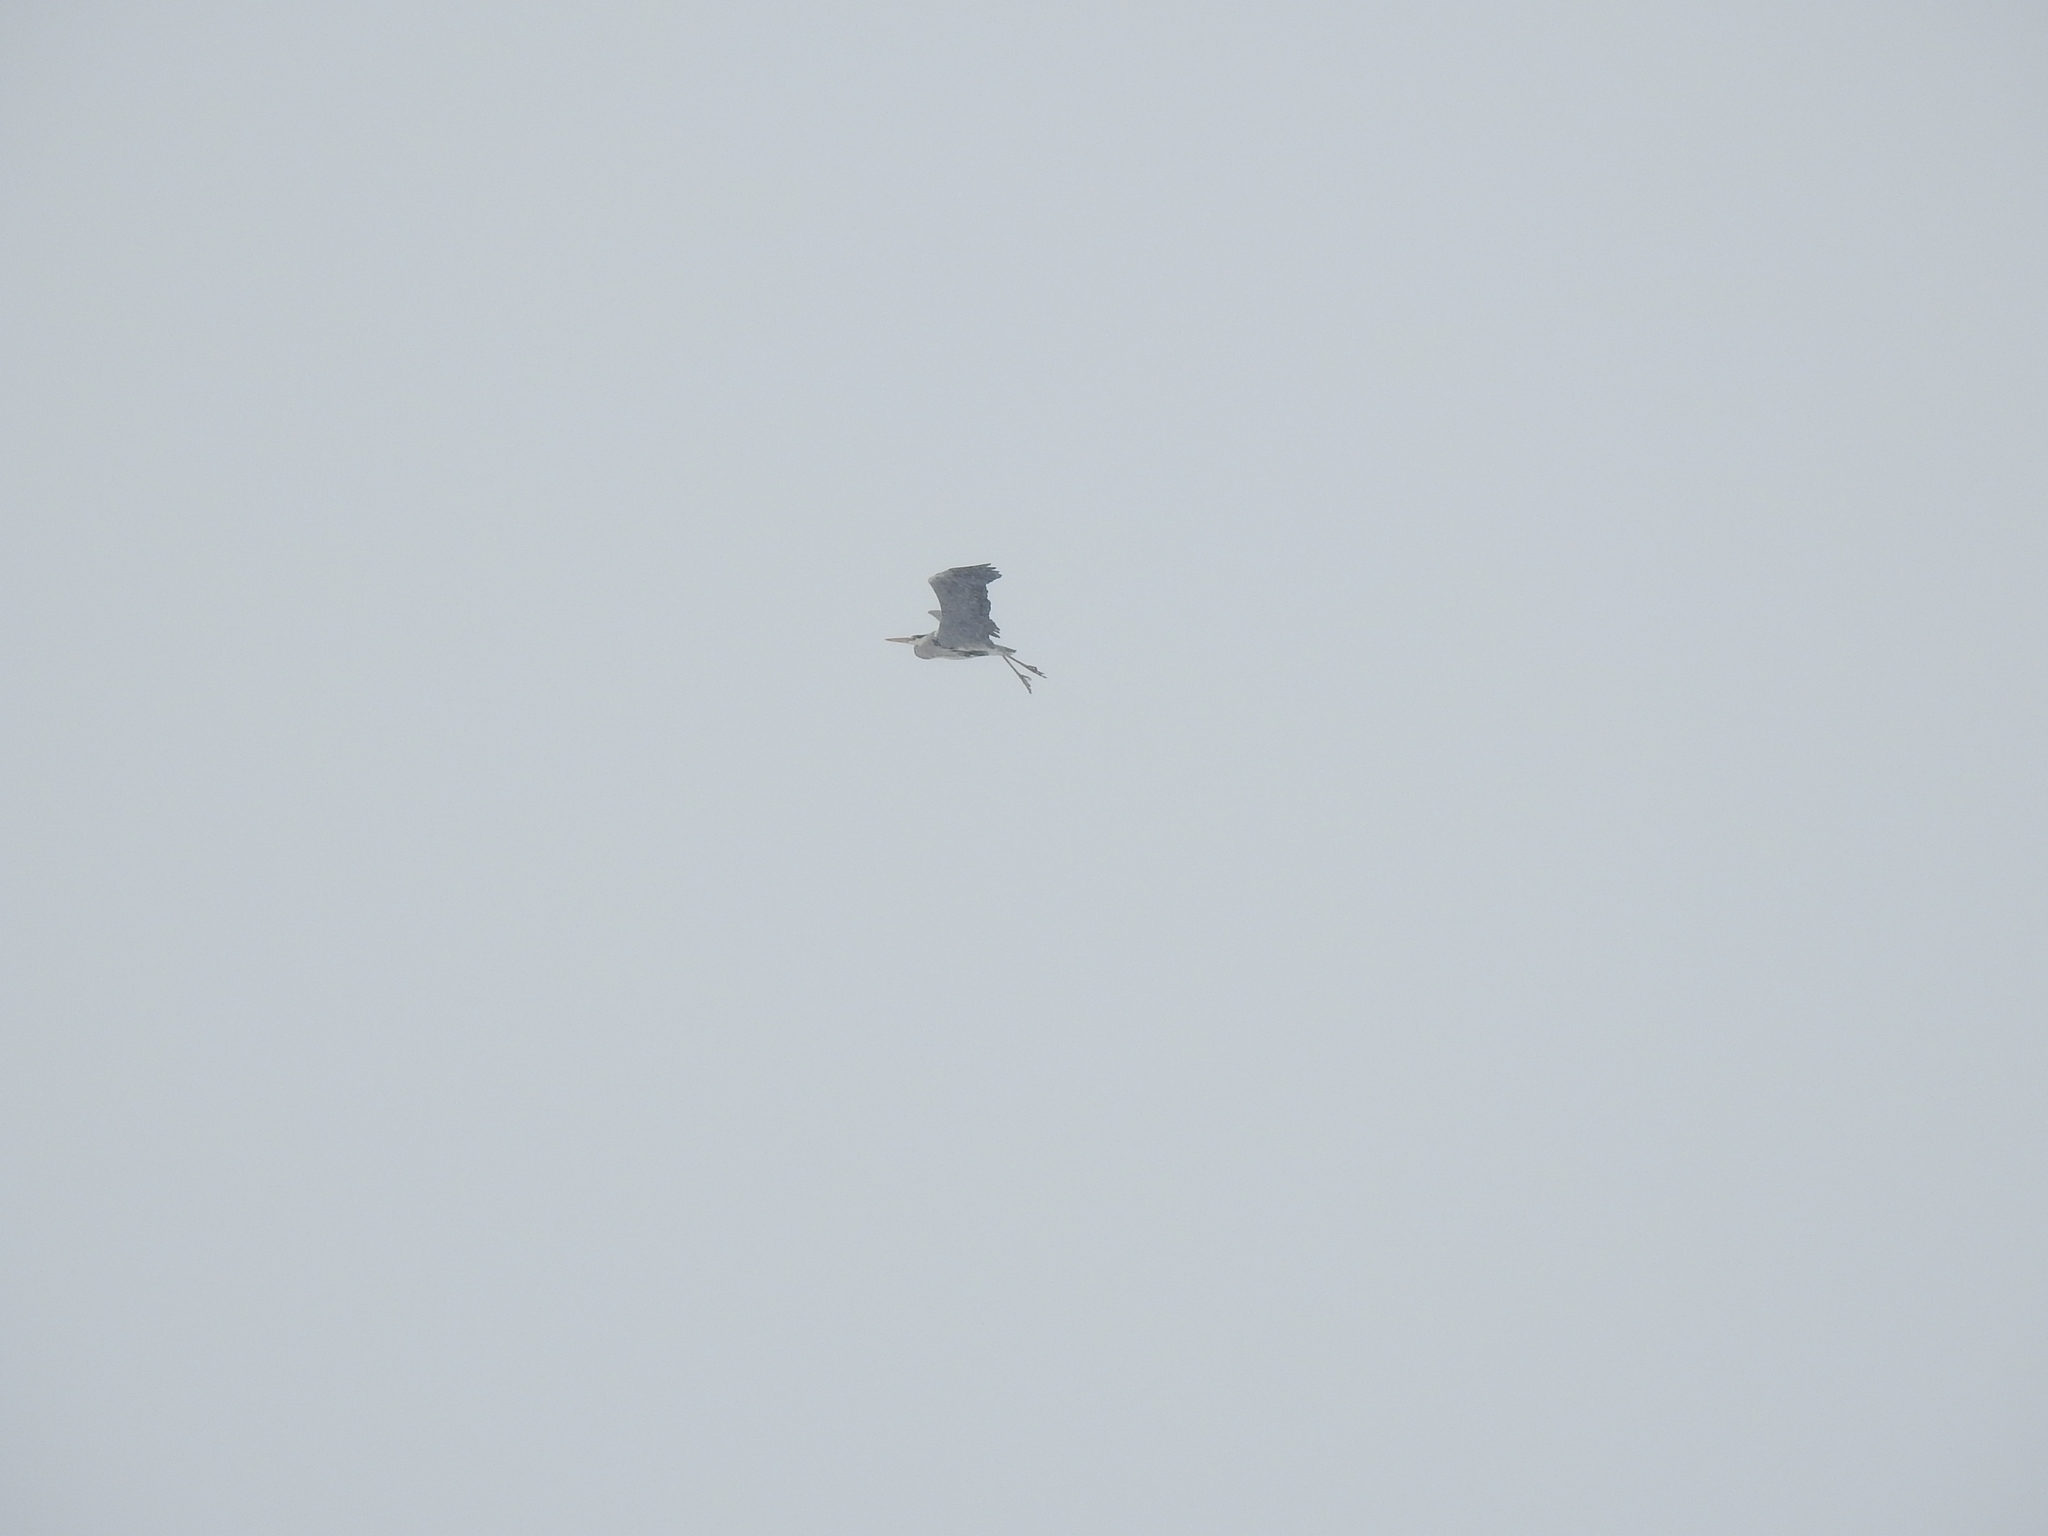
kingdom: Animalia
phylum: Chordata
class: Aves
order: Pelecaniformes
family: Ardeidae
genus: Ardea
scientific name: Ardea cinerea
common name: Grey heron
